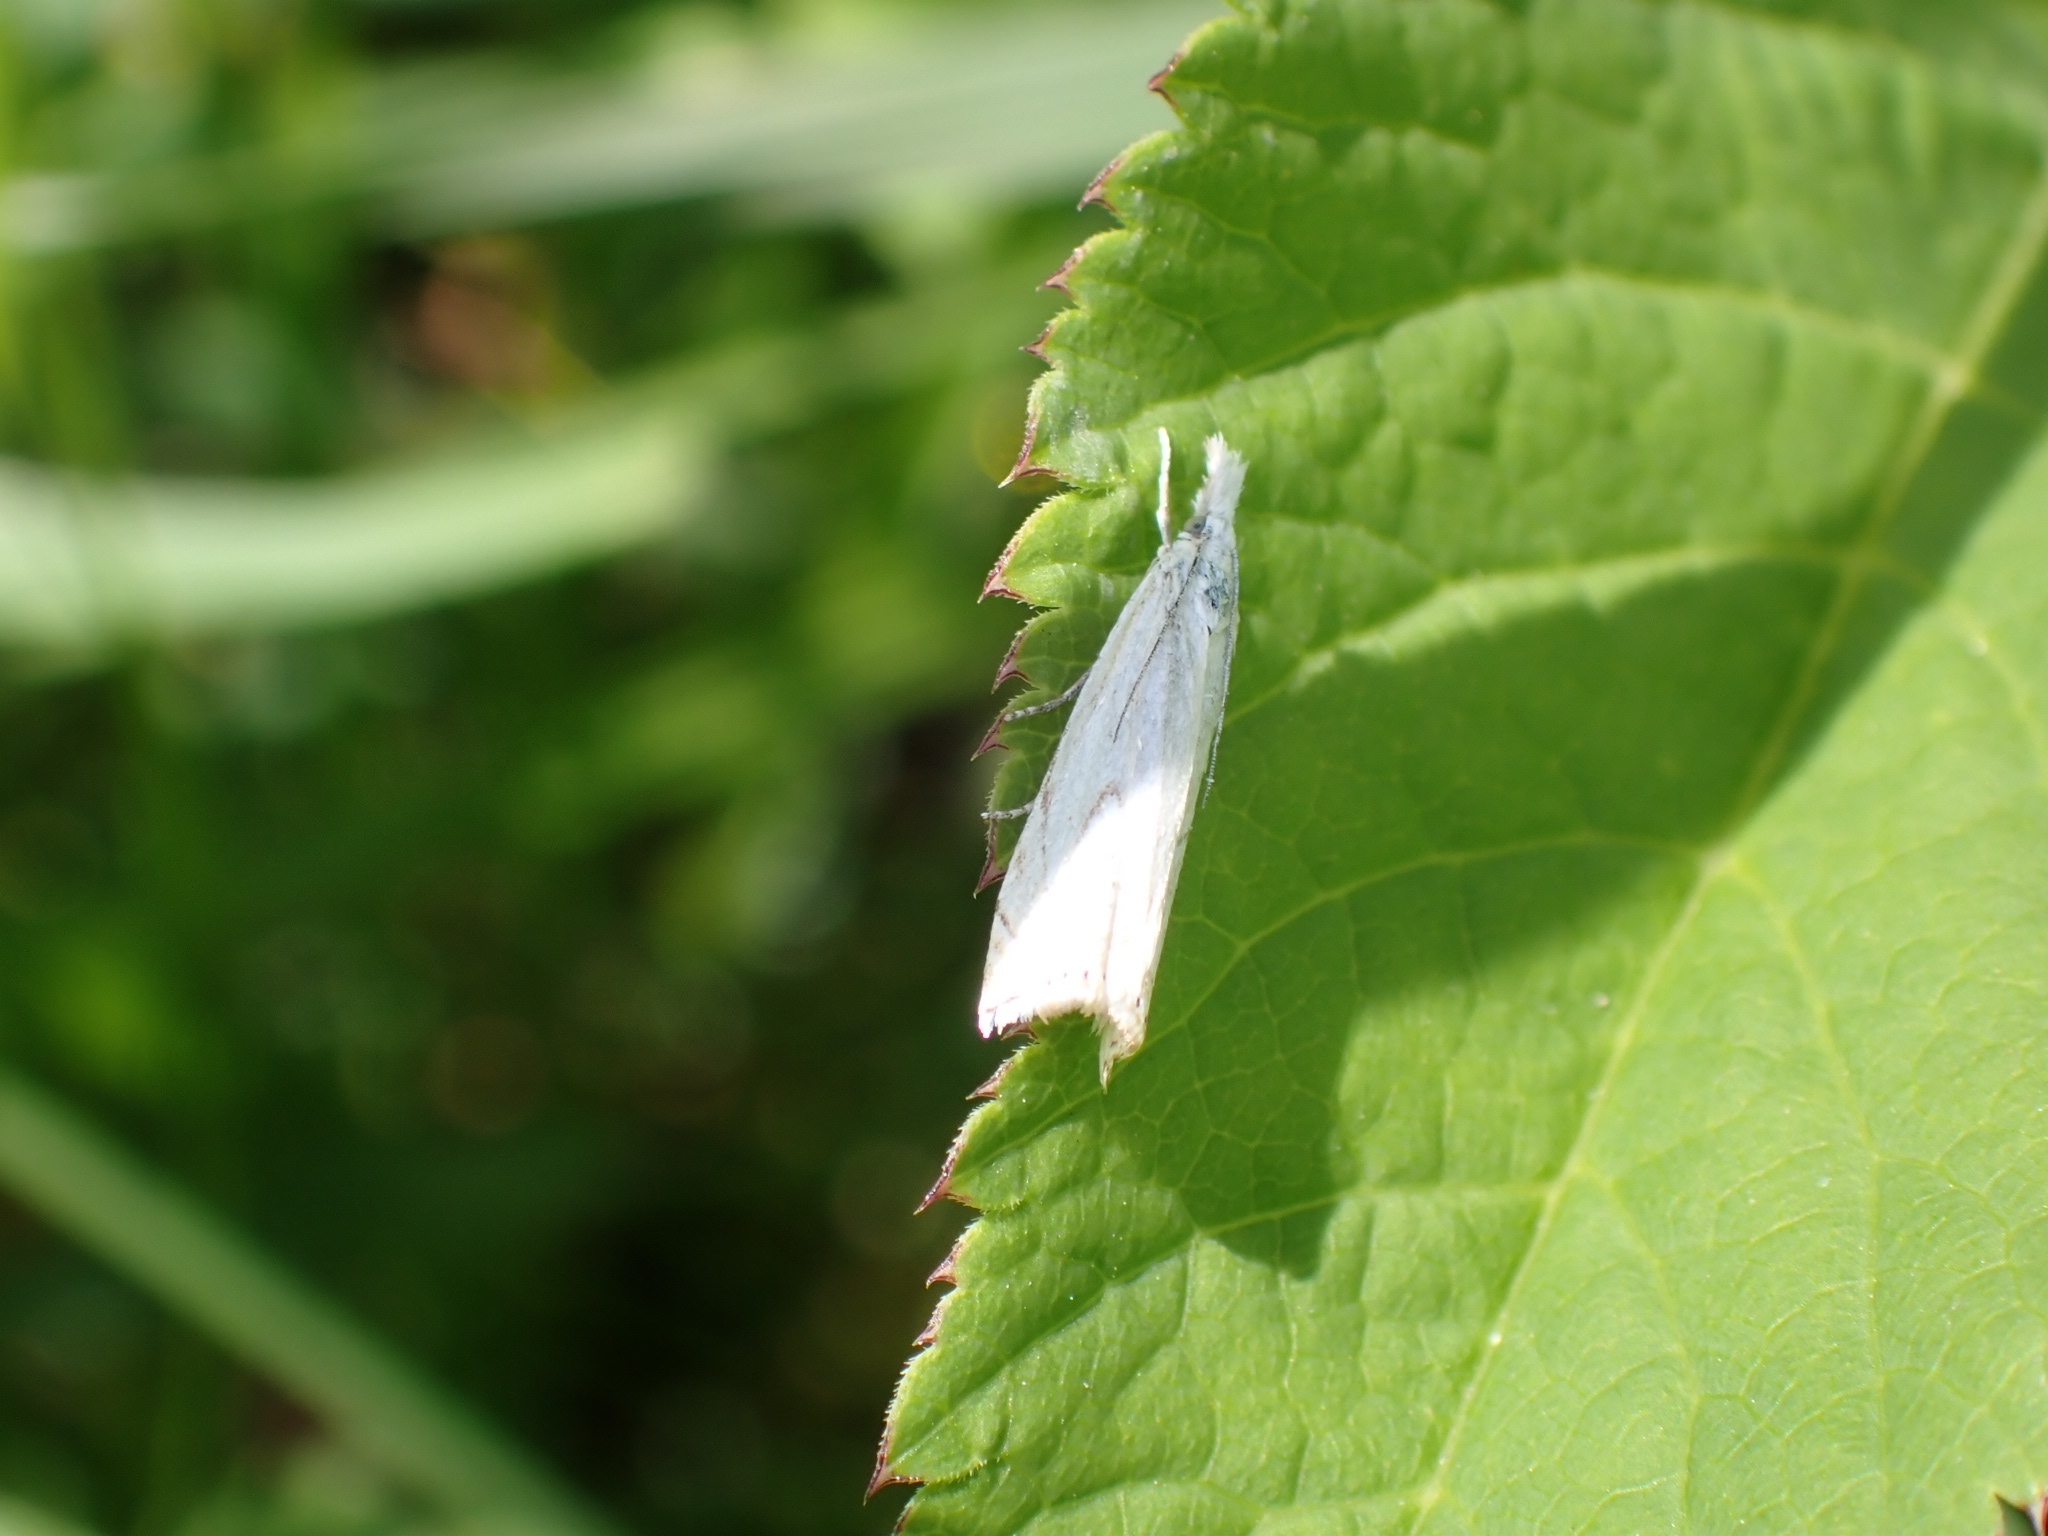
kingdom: Animalia
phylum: Arthropoda
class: Insecta
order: Lepidoptera
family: Crambidae
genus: Crambus
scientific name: Crambus nemorella
